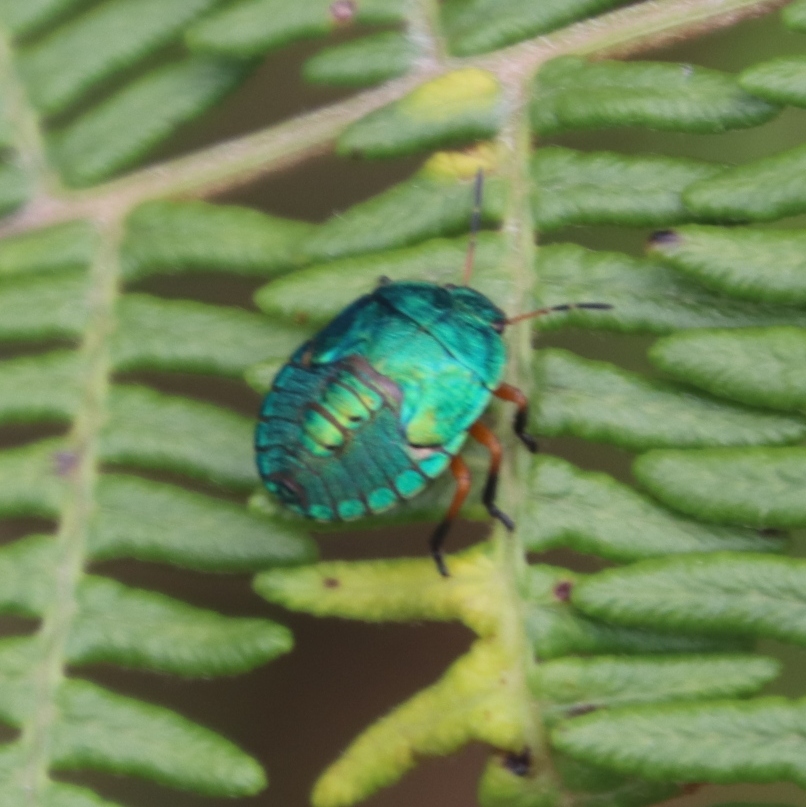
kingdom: Plantae
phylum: Tracheophyta
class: Polypodiopsida
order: Polypodiales
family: Dennstaedtiaceae
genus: Pteridium
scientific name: Pteridium aquilinum
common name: Bracken
